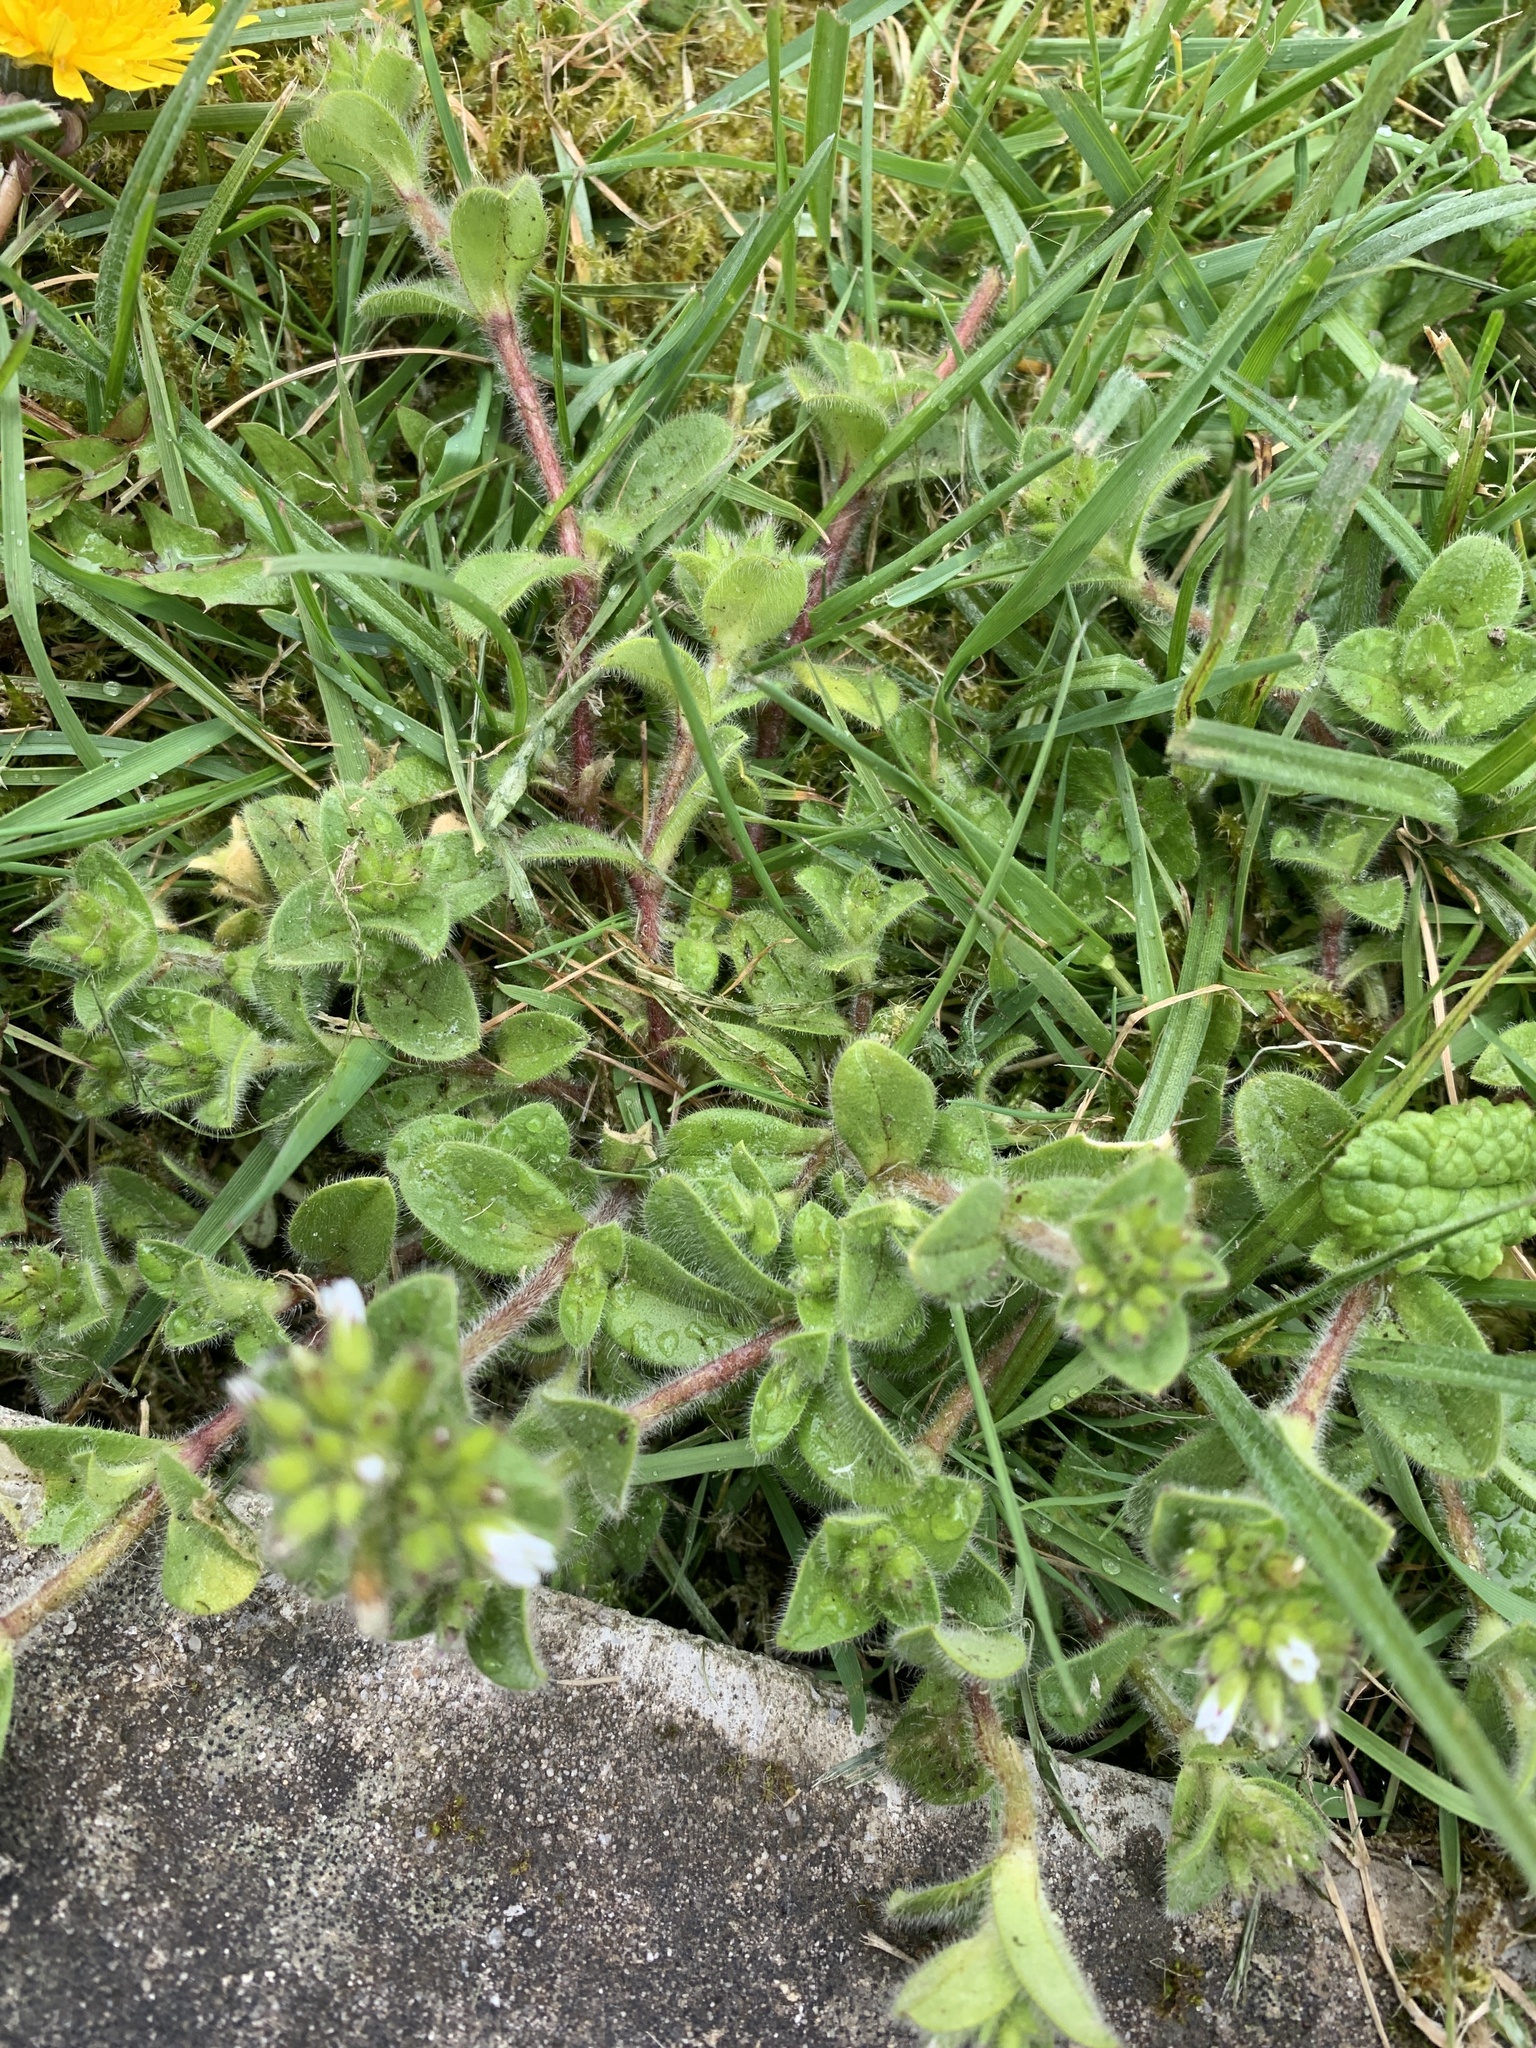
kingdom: Plantae
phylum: Tracheophyta
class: Magnoliopsida
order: Caryophyllales
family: Caryophyllaceae
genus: Cerastium
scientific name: Cerastium glomeratum
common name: Sticky chickweed
